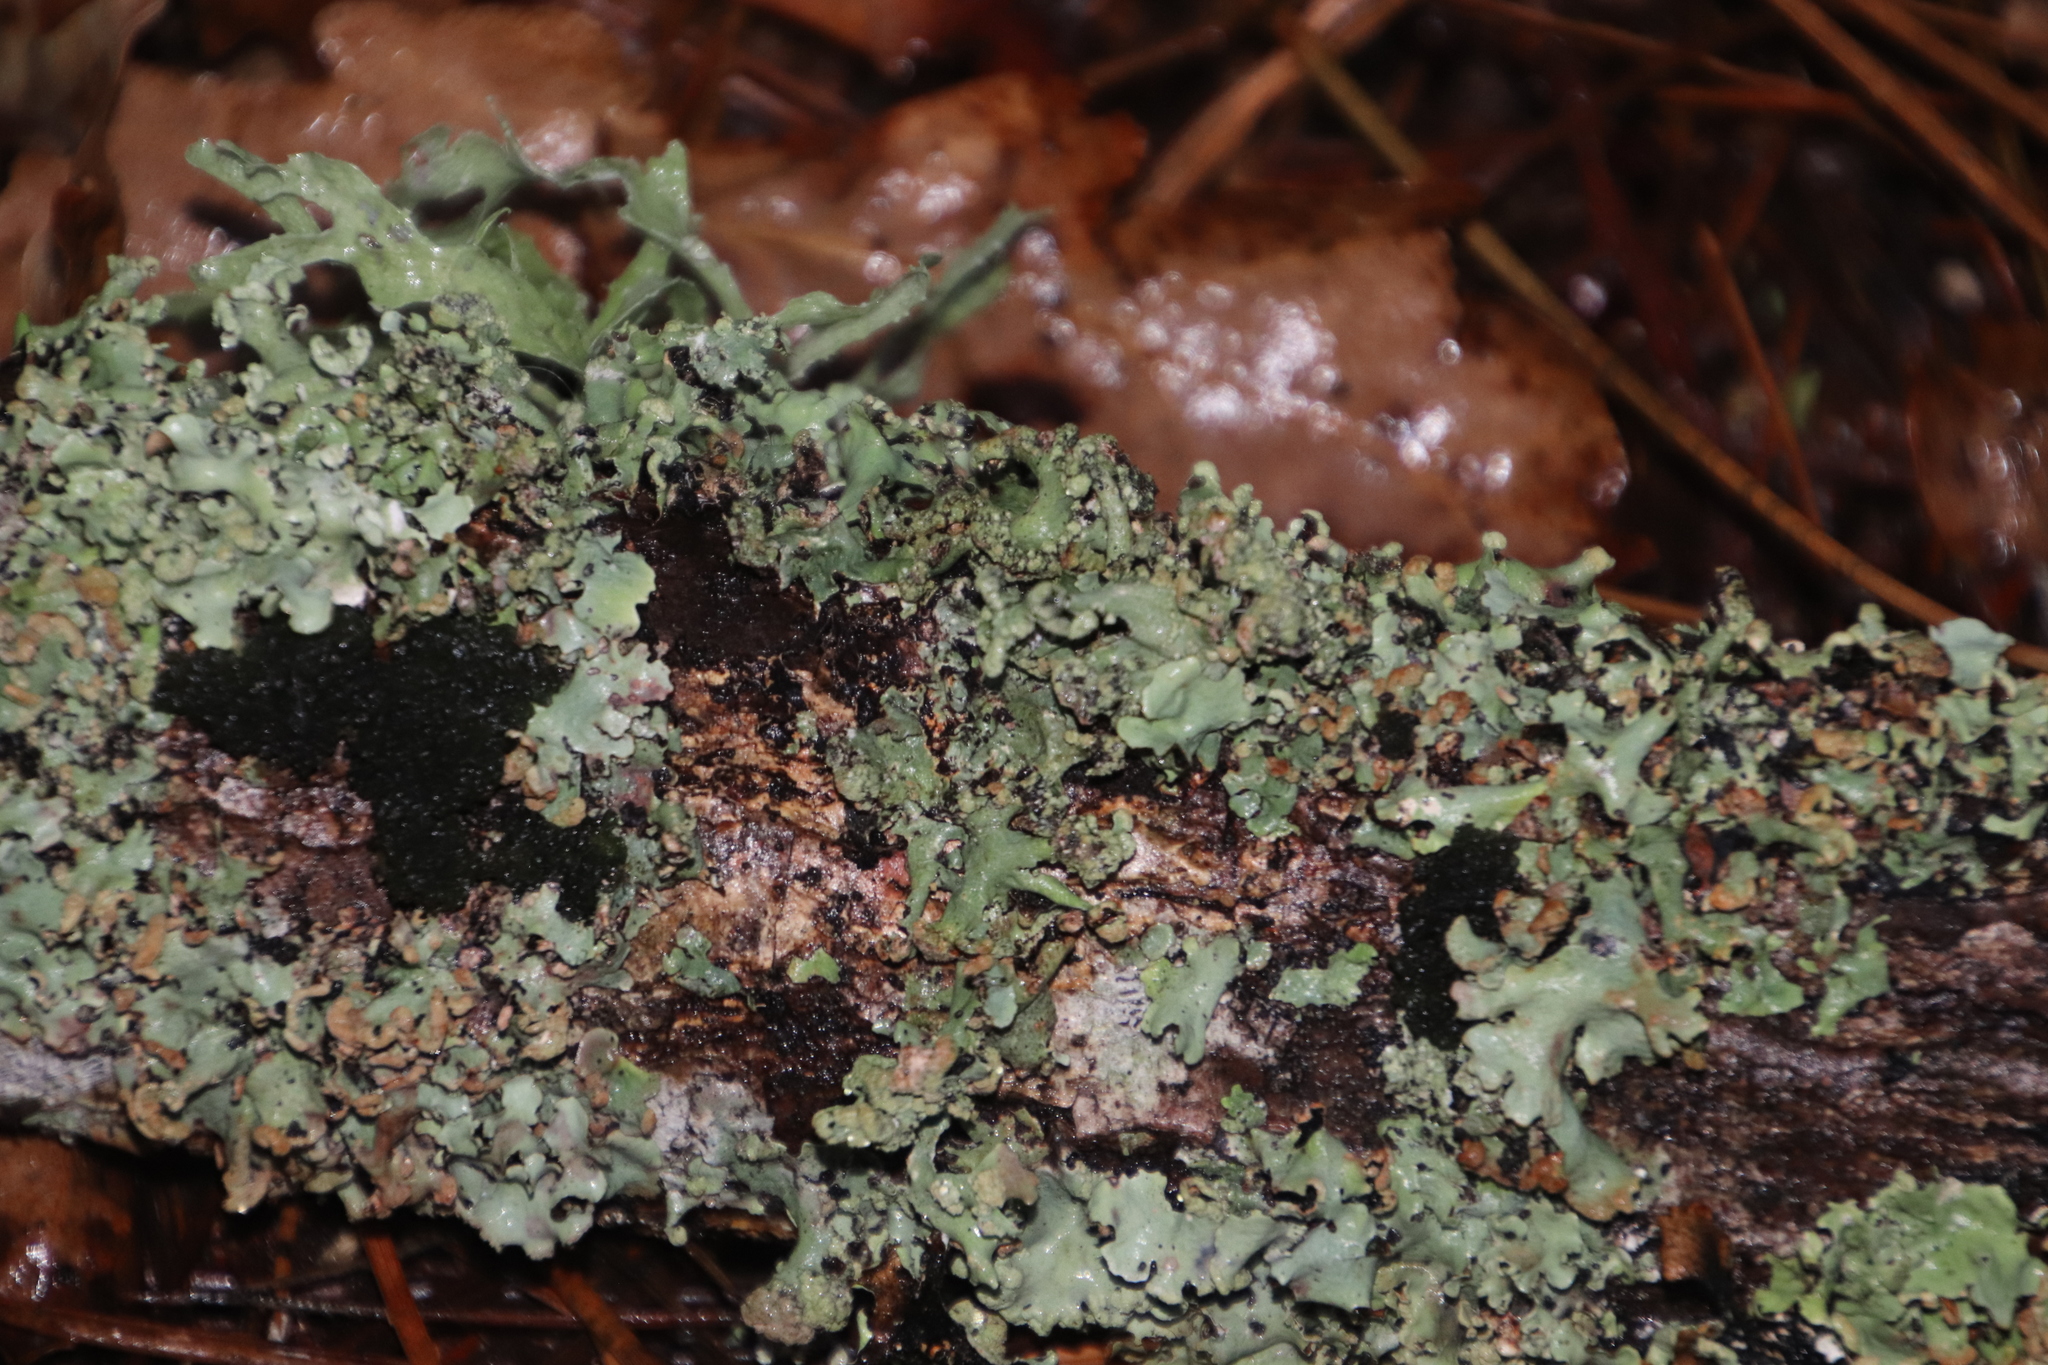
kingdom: Fungi
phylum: Ascomycota
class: Lecanoromycetes
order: Lecanorales
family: Ramalinaceae
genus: Ramalina
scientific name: Ramalina celastri
